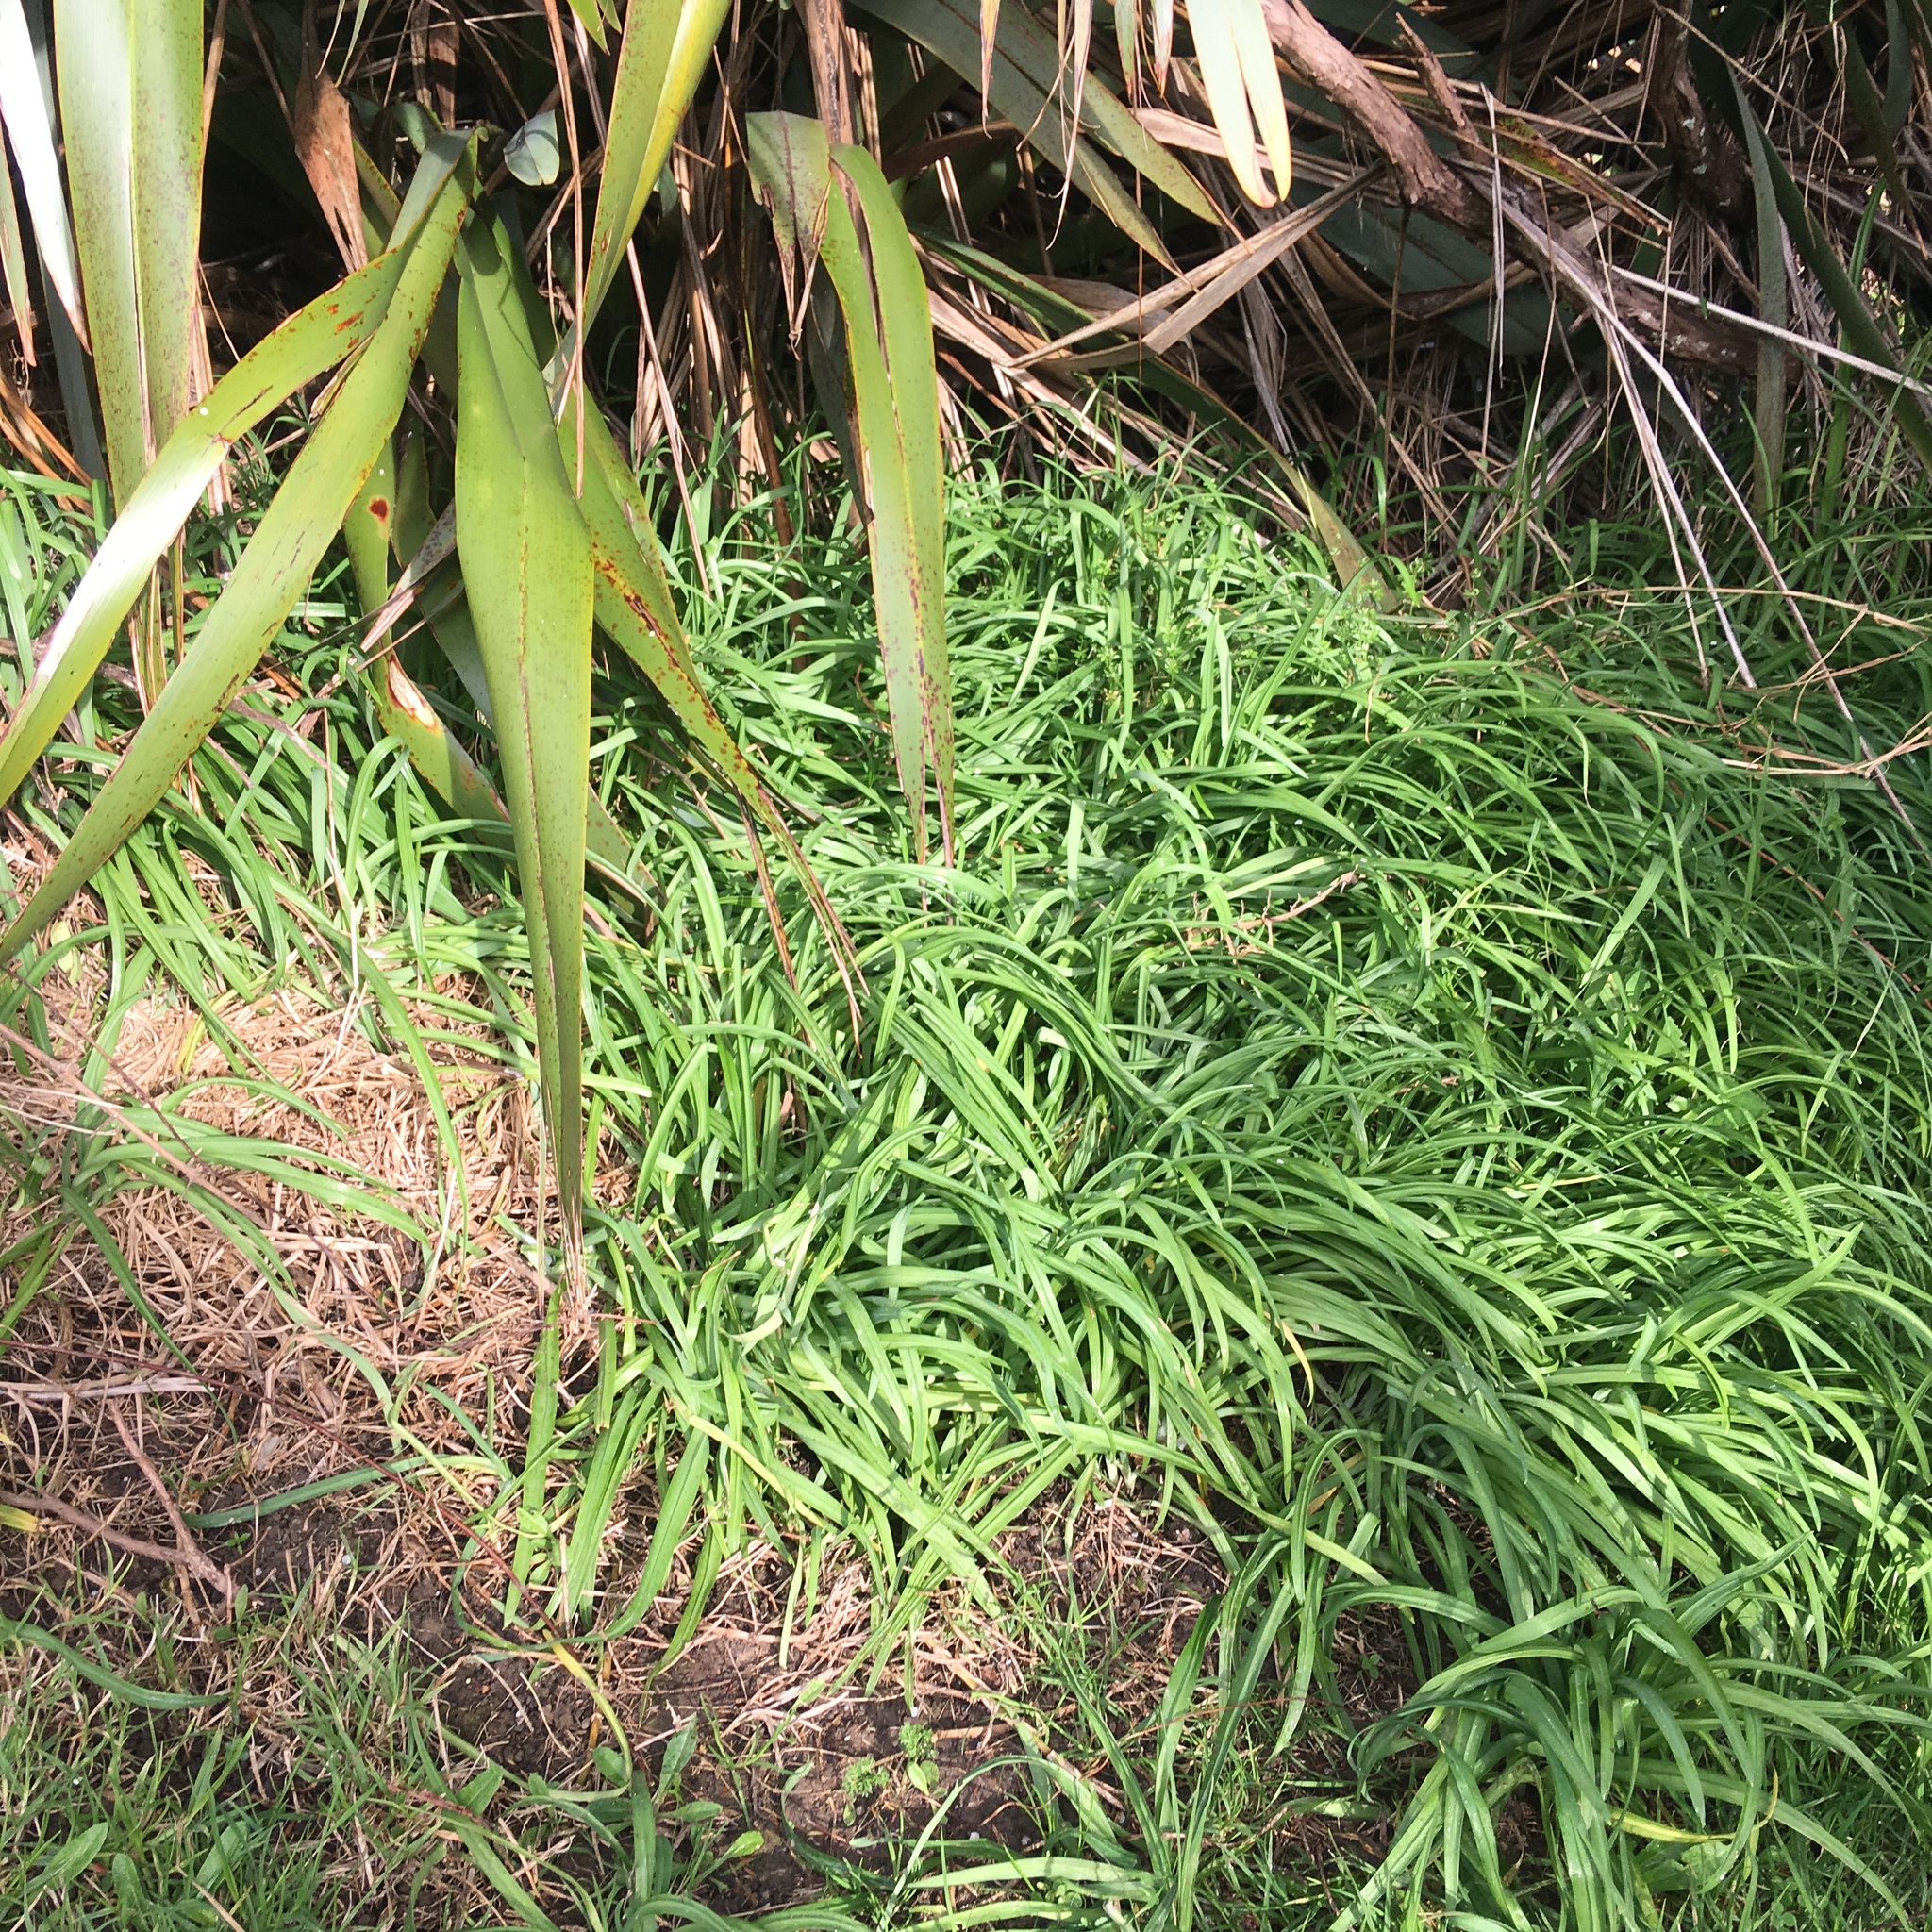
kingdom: Plantae
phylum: Tracheophyta
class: Liliopsida
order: Asparagales
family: Amaryllidaceae
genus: Allium
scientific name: Allium triquetrum
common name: Three-cornered garlic
